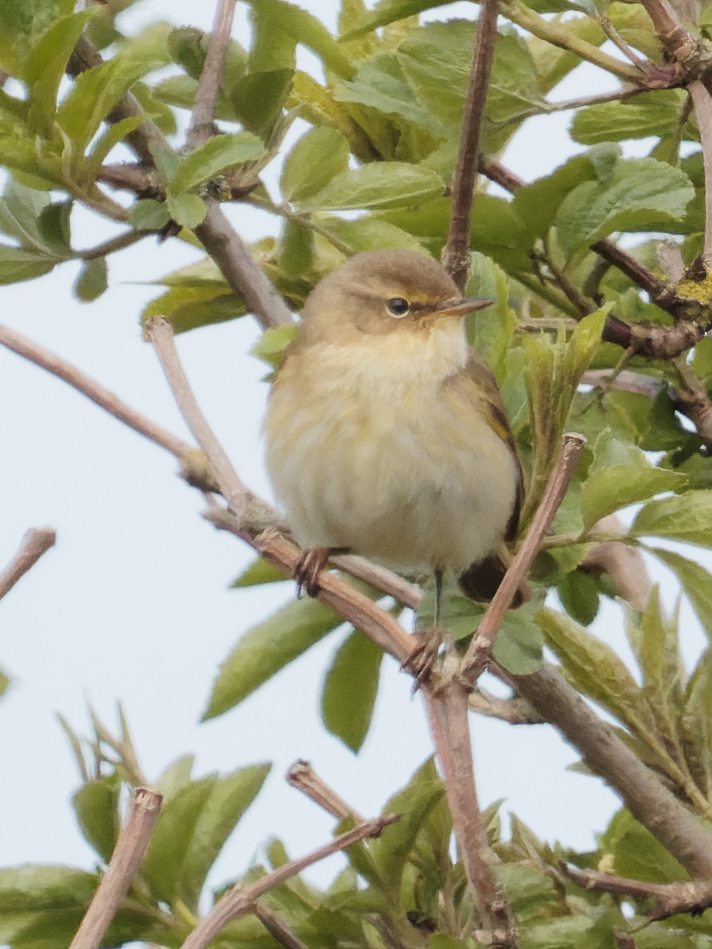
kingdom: Animalia
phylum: Chordata
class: Aves
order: Passeriformes
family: Phylloscopidae
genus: Phylloscopus
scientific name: Phylloscopus collybita
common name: Common chiffchaff
